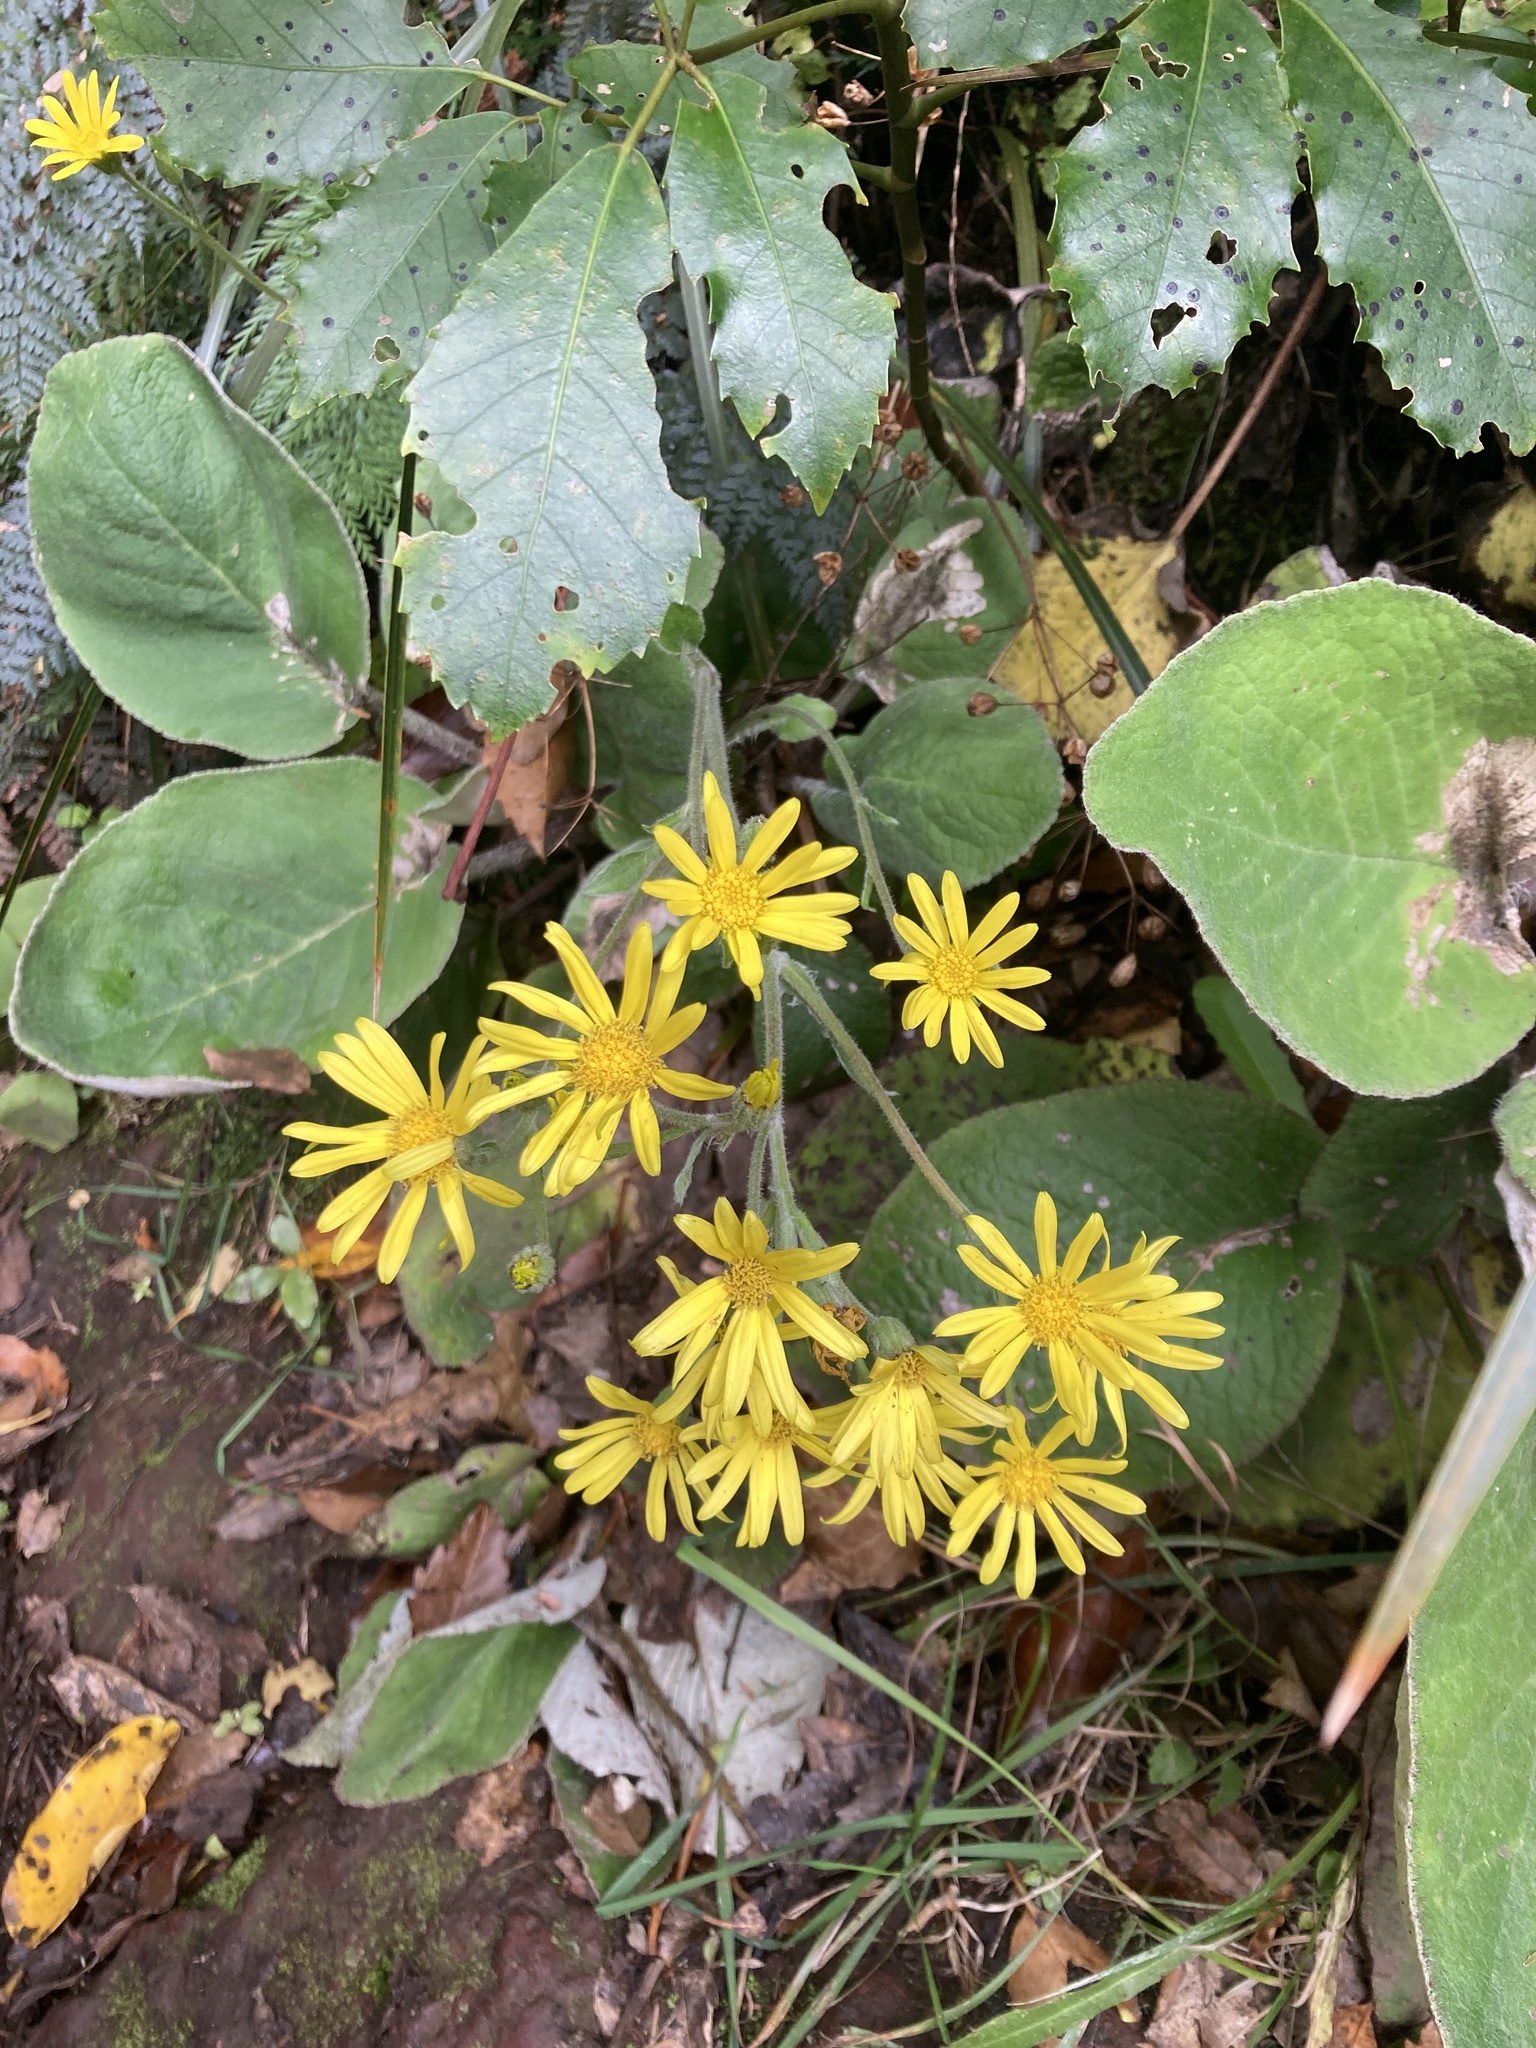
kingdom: Plantae
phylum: Tracheophyta
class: Magnoliopsida
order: Asterales
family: Asteraceae
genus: Brachyglottis
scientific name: Brachyglottis lagopus
